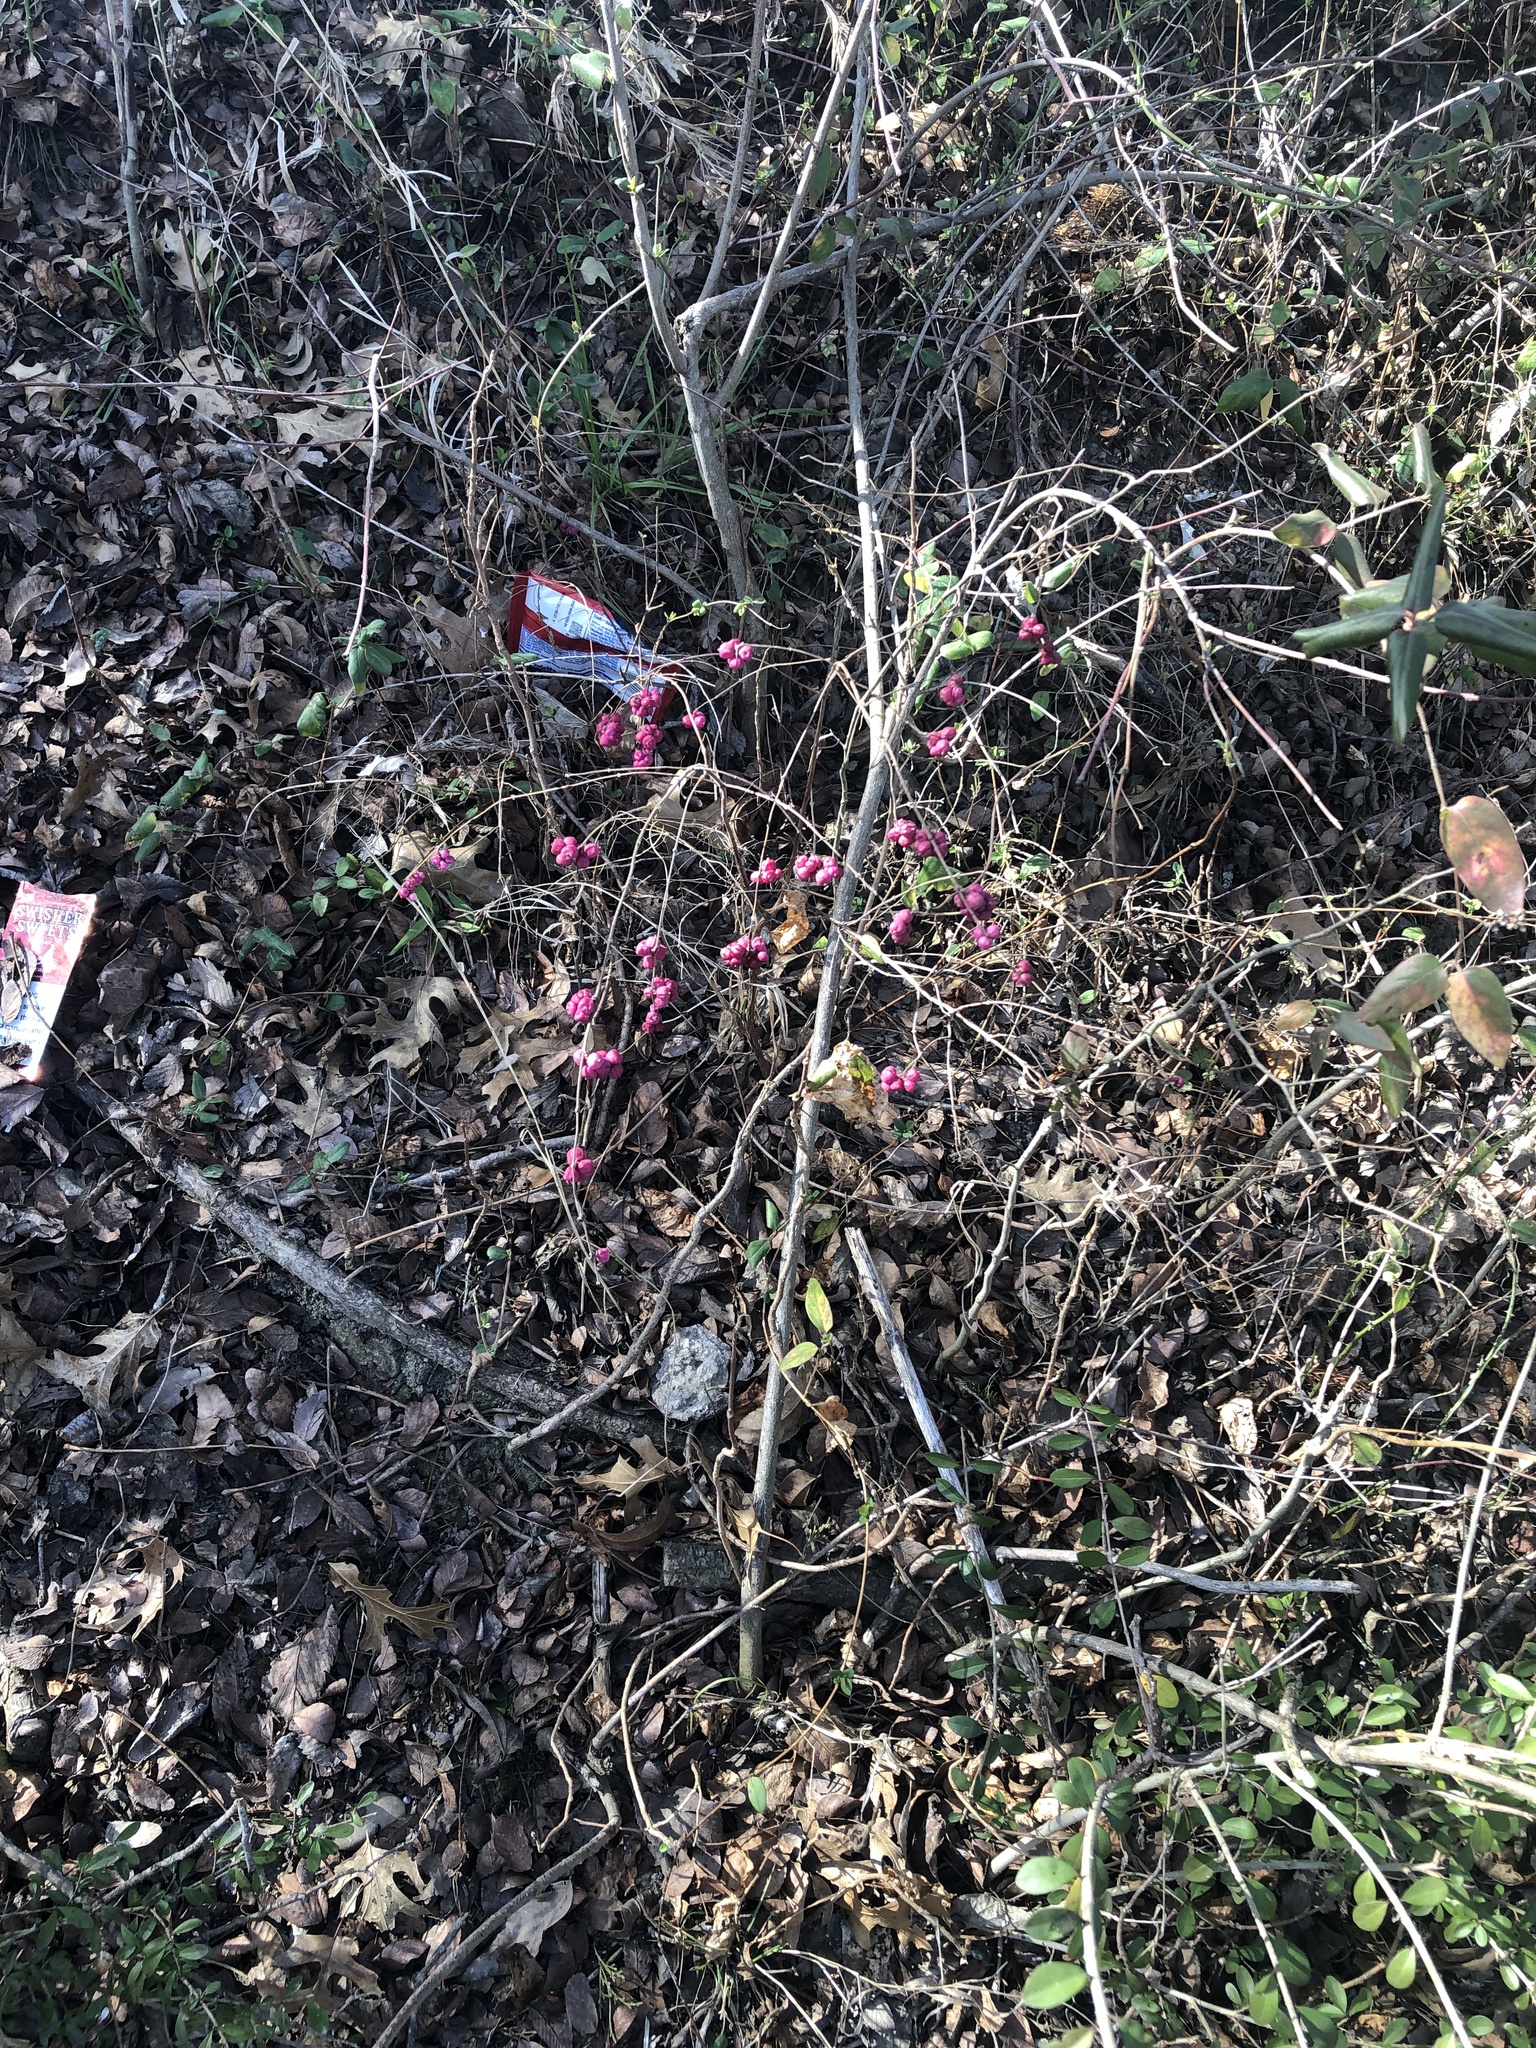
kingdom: Plantae
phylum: Tracheophyta
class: Magnoliopsida
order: Dipsacales
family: Caprifoliaceae
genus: Symphoricarpos
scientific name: Symphoricarpos orbiculatus
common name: Coralberry
